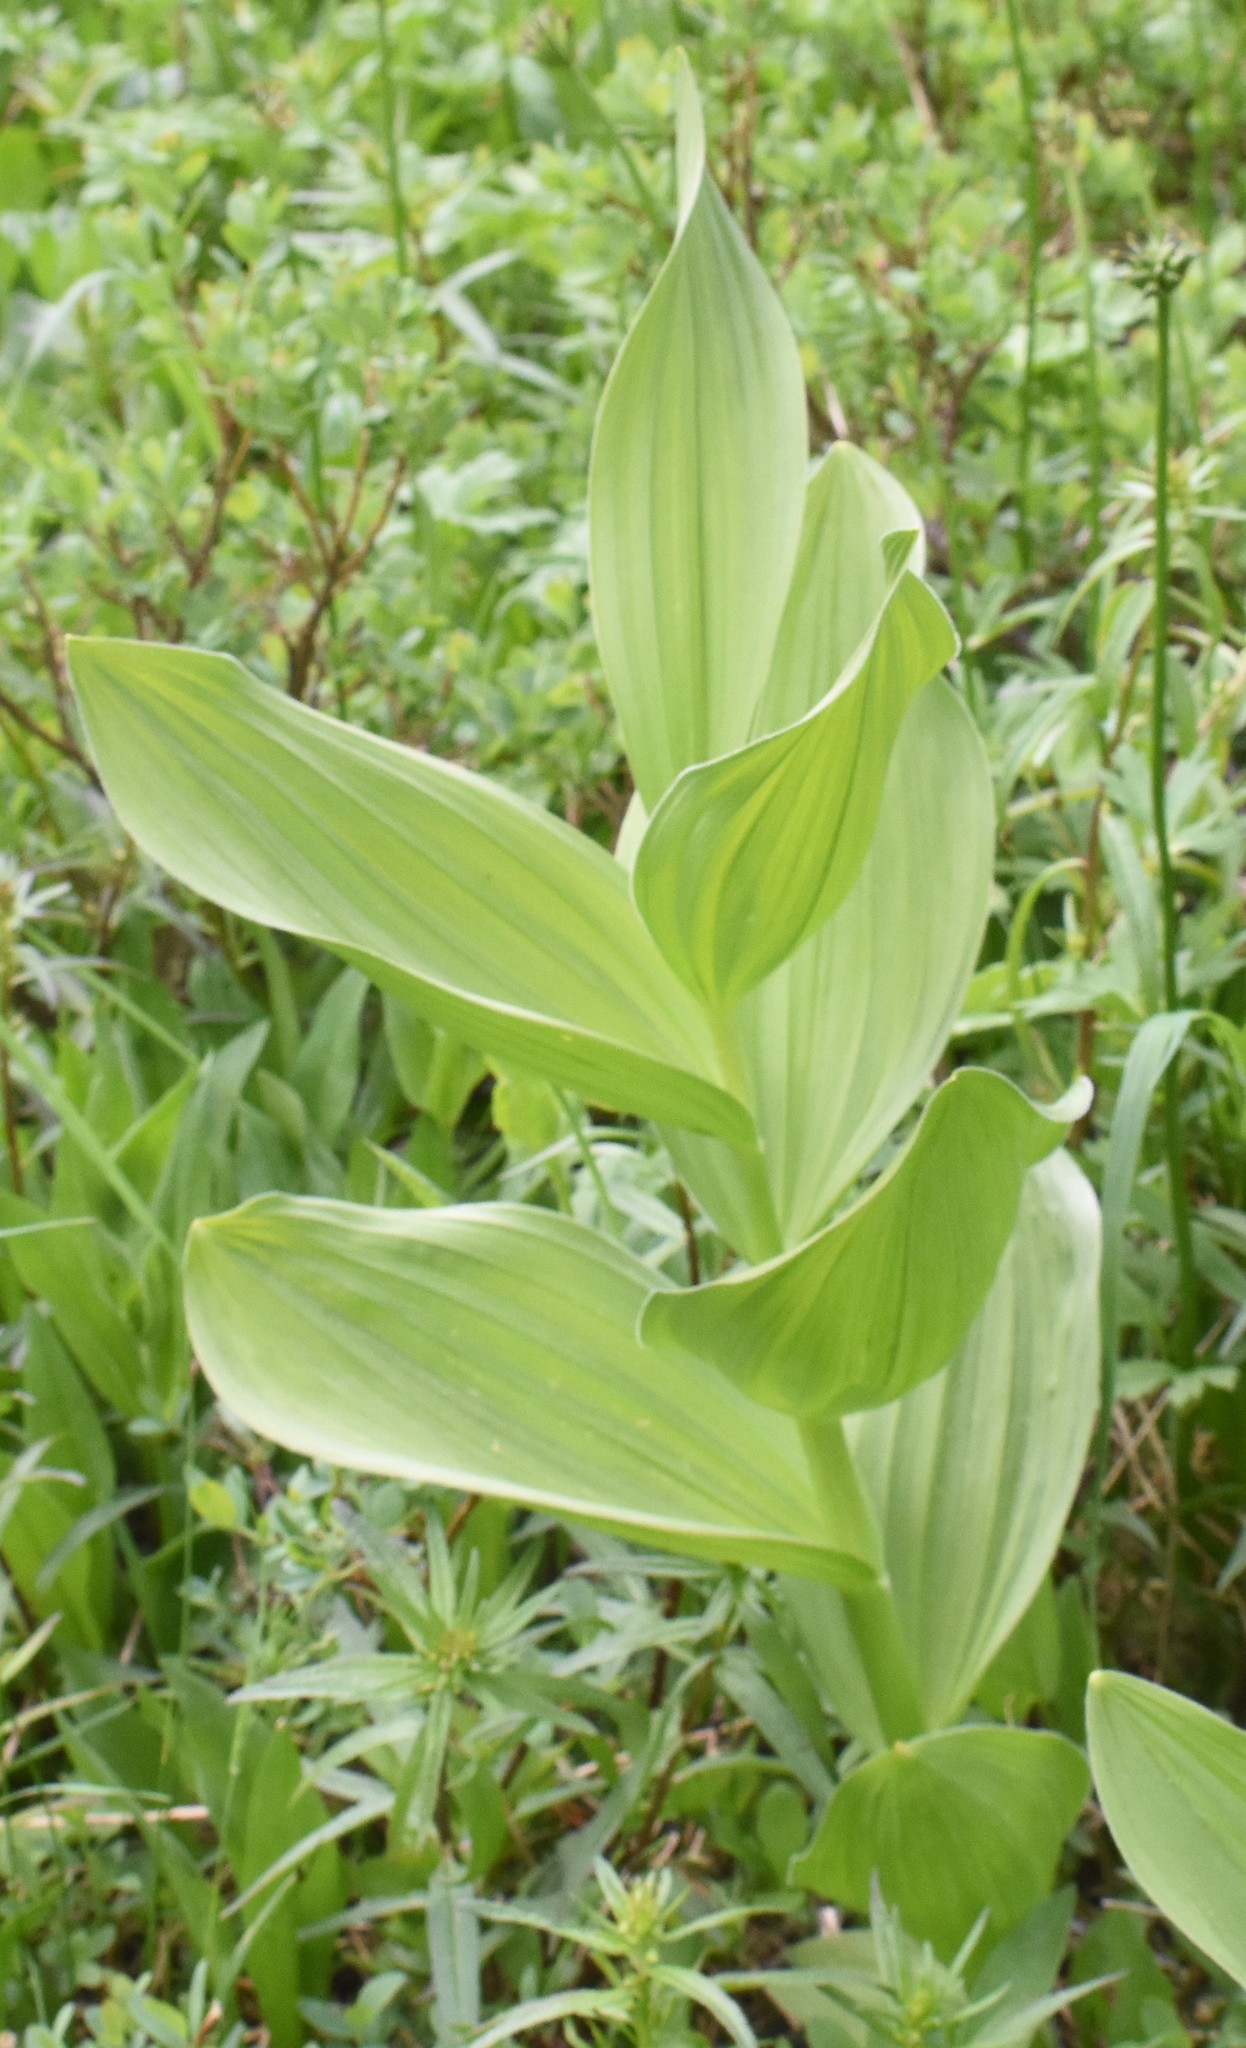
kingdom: Plantae
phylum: Tracheophyta
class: Liliopsida
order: Liliales
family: Melanthiaceae
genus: Veratrum
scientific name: Veratrum californicum
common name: California veratrum
